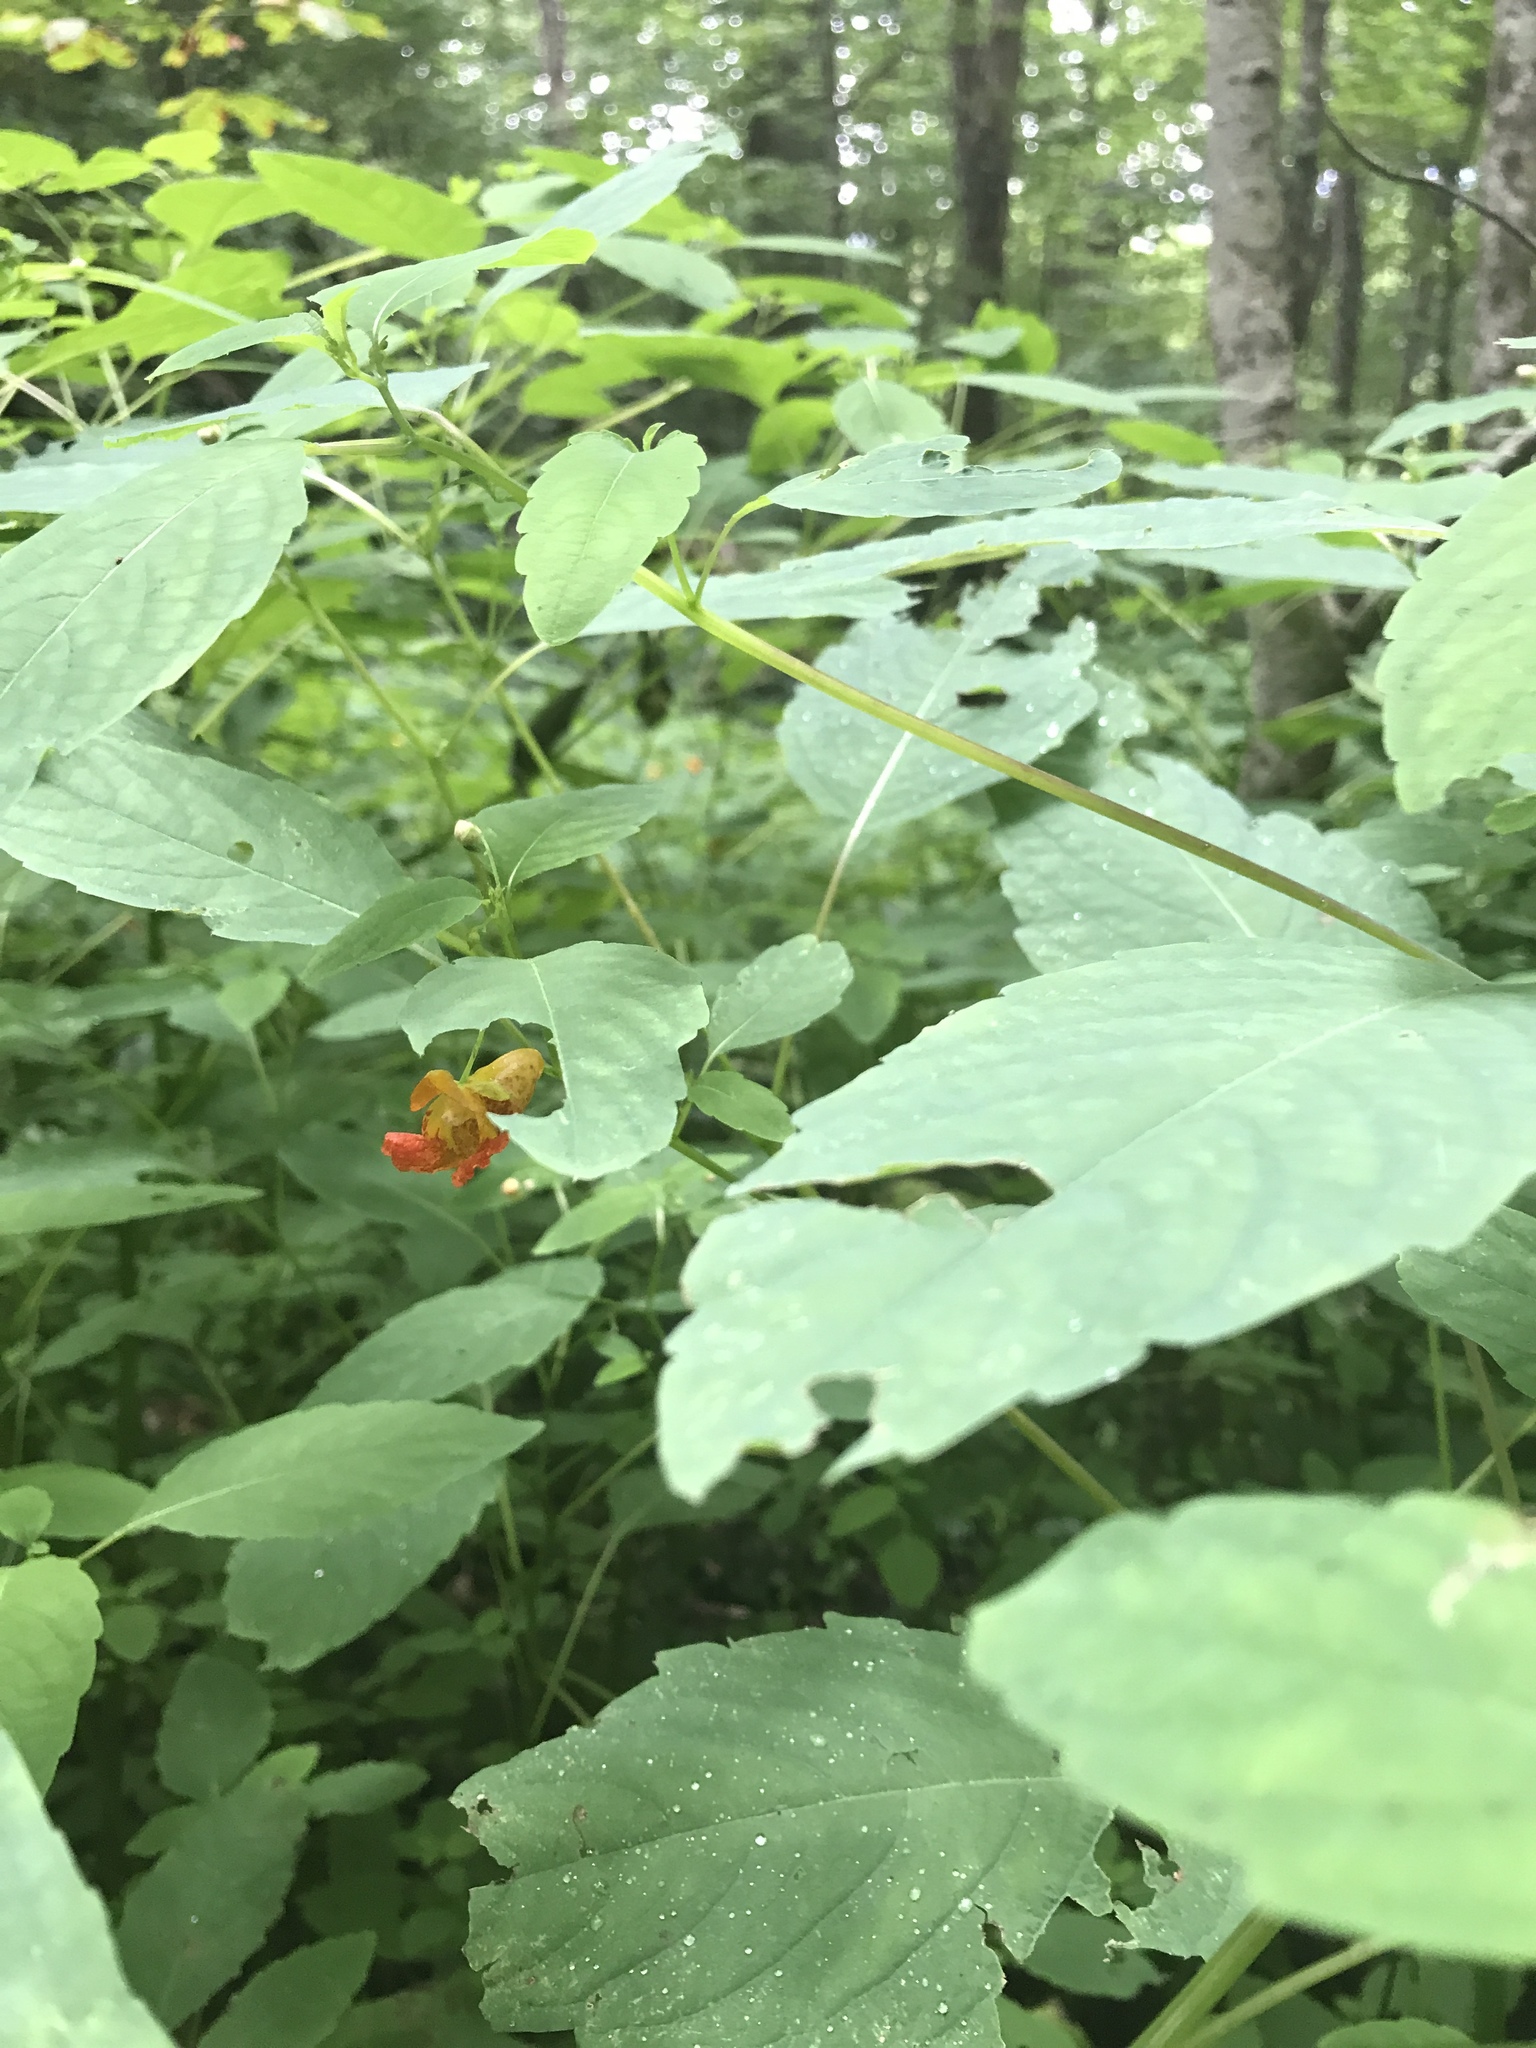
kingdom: Plantae
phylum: Tracheophyta
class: Magnoliopsida
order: Ericales
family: Balsaminaceae
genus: Impatiens
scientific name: Impatiens capensis
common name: Orange balsam
